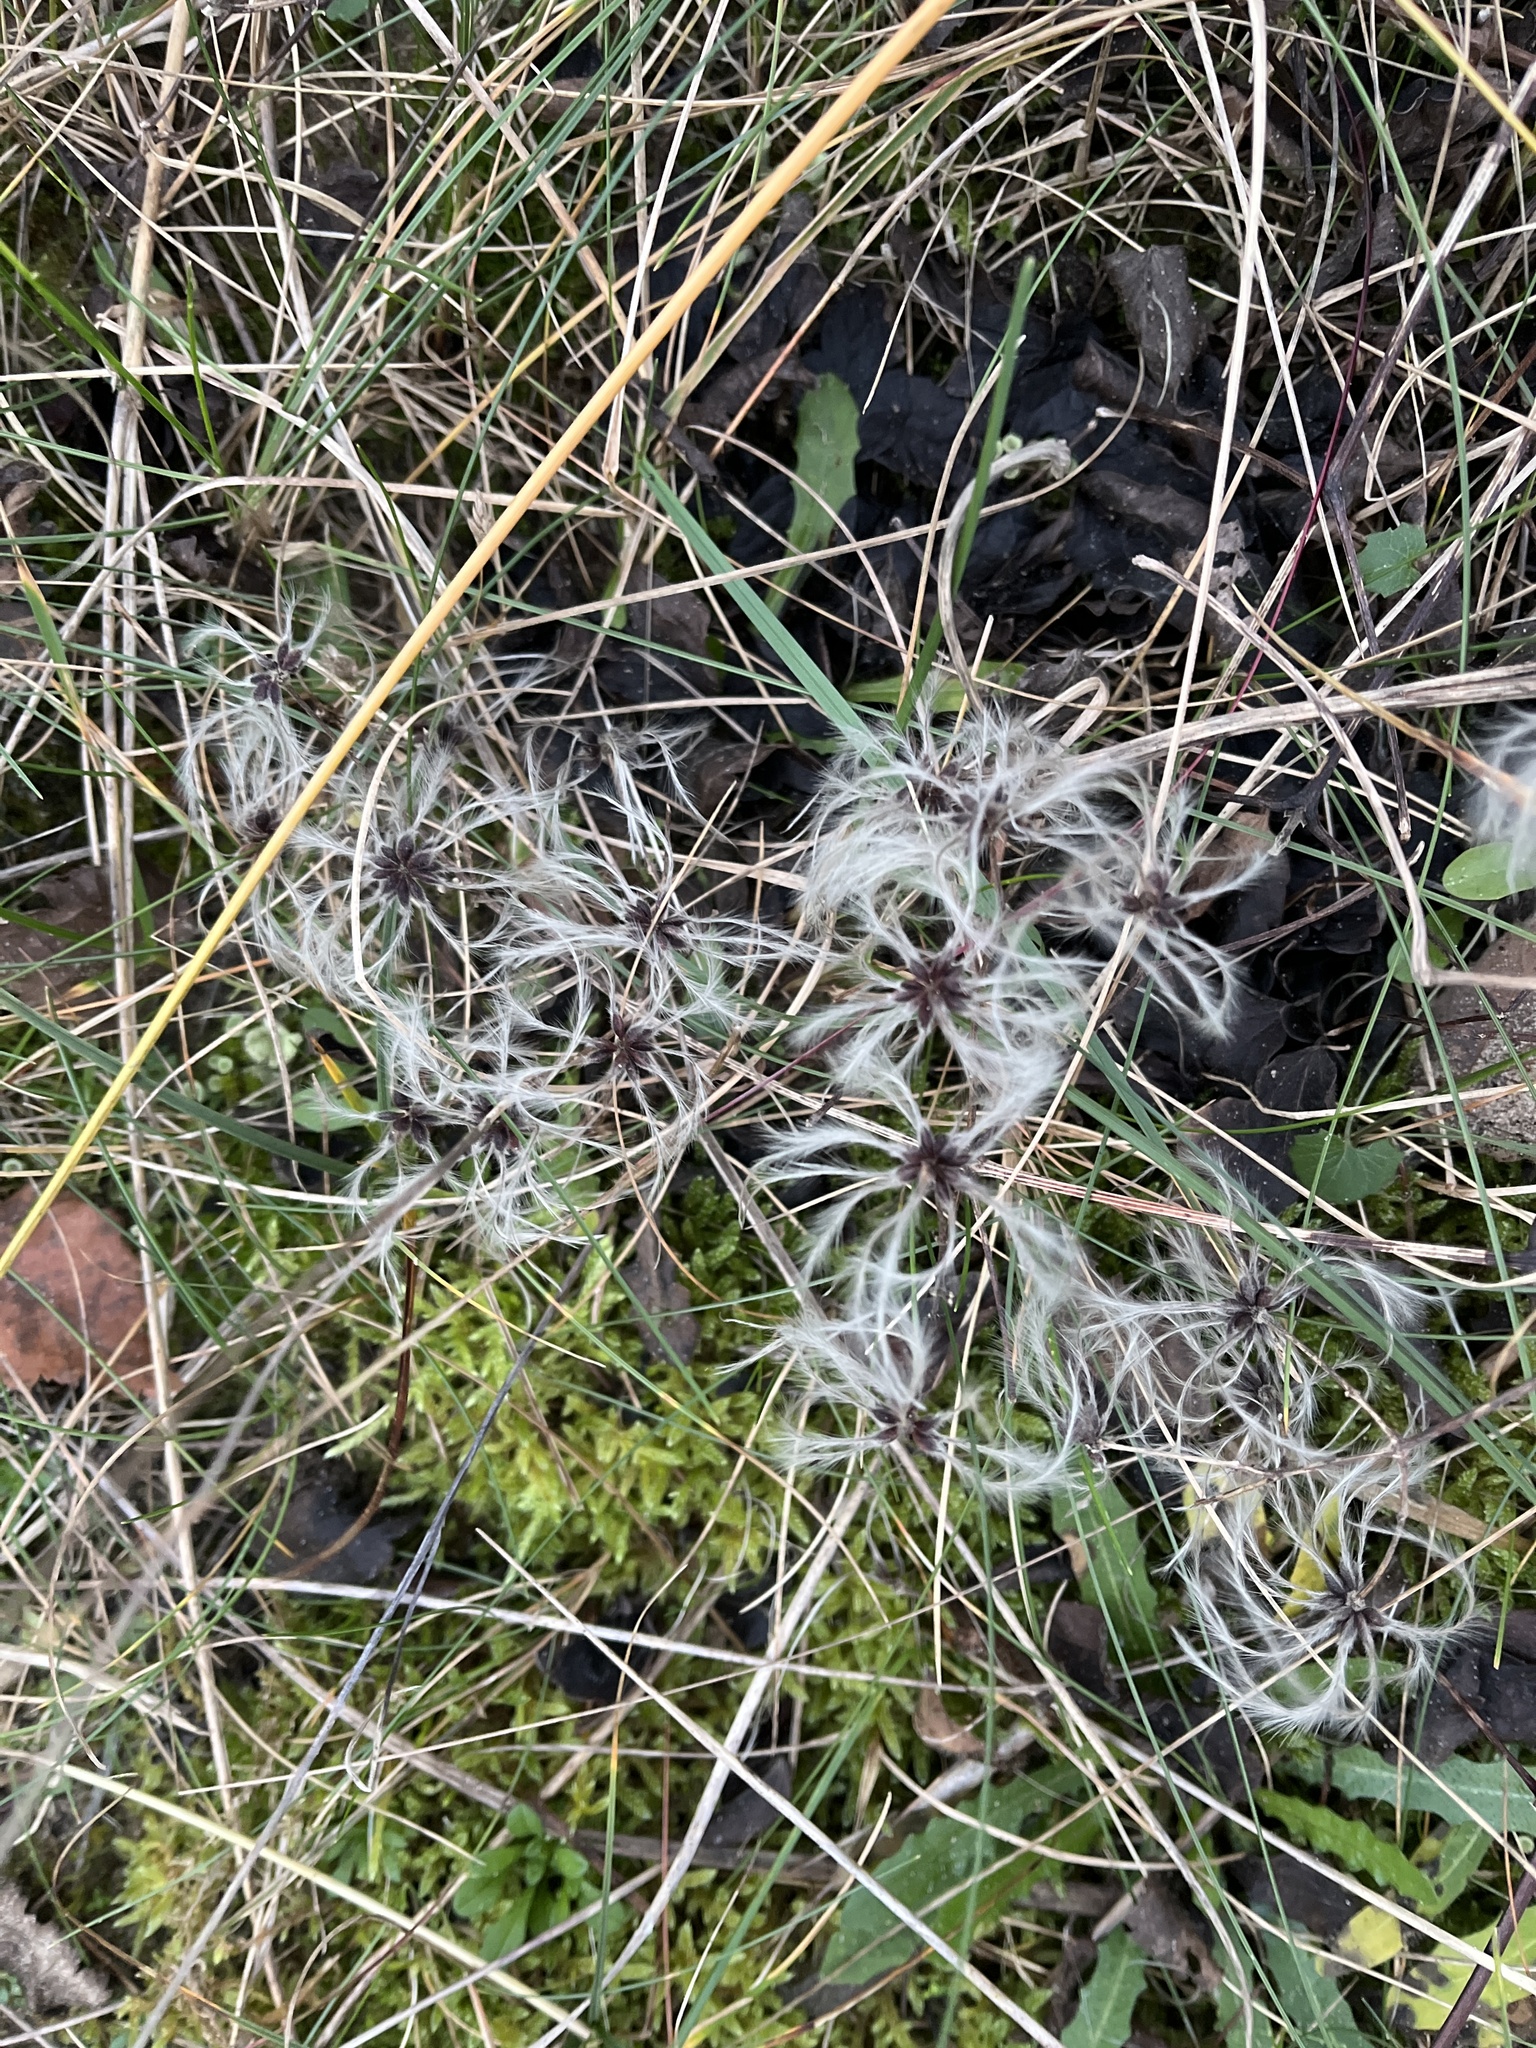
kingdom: Plantae
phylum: Tracheophyta
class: Magnoliopsida
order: Ranunculales
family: Ranunculaceae
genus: Clematis
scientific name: Clematis vitalba
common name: Evergreen clematis
